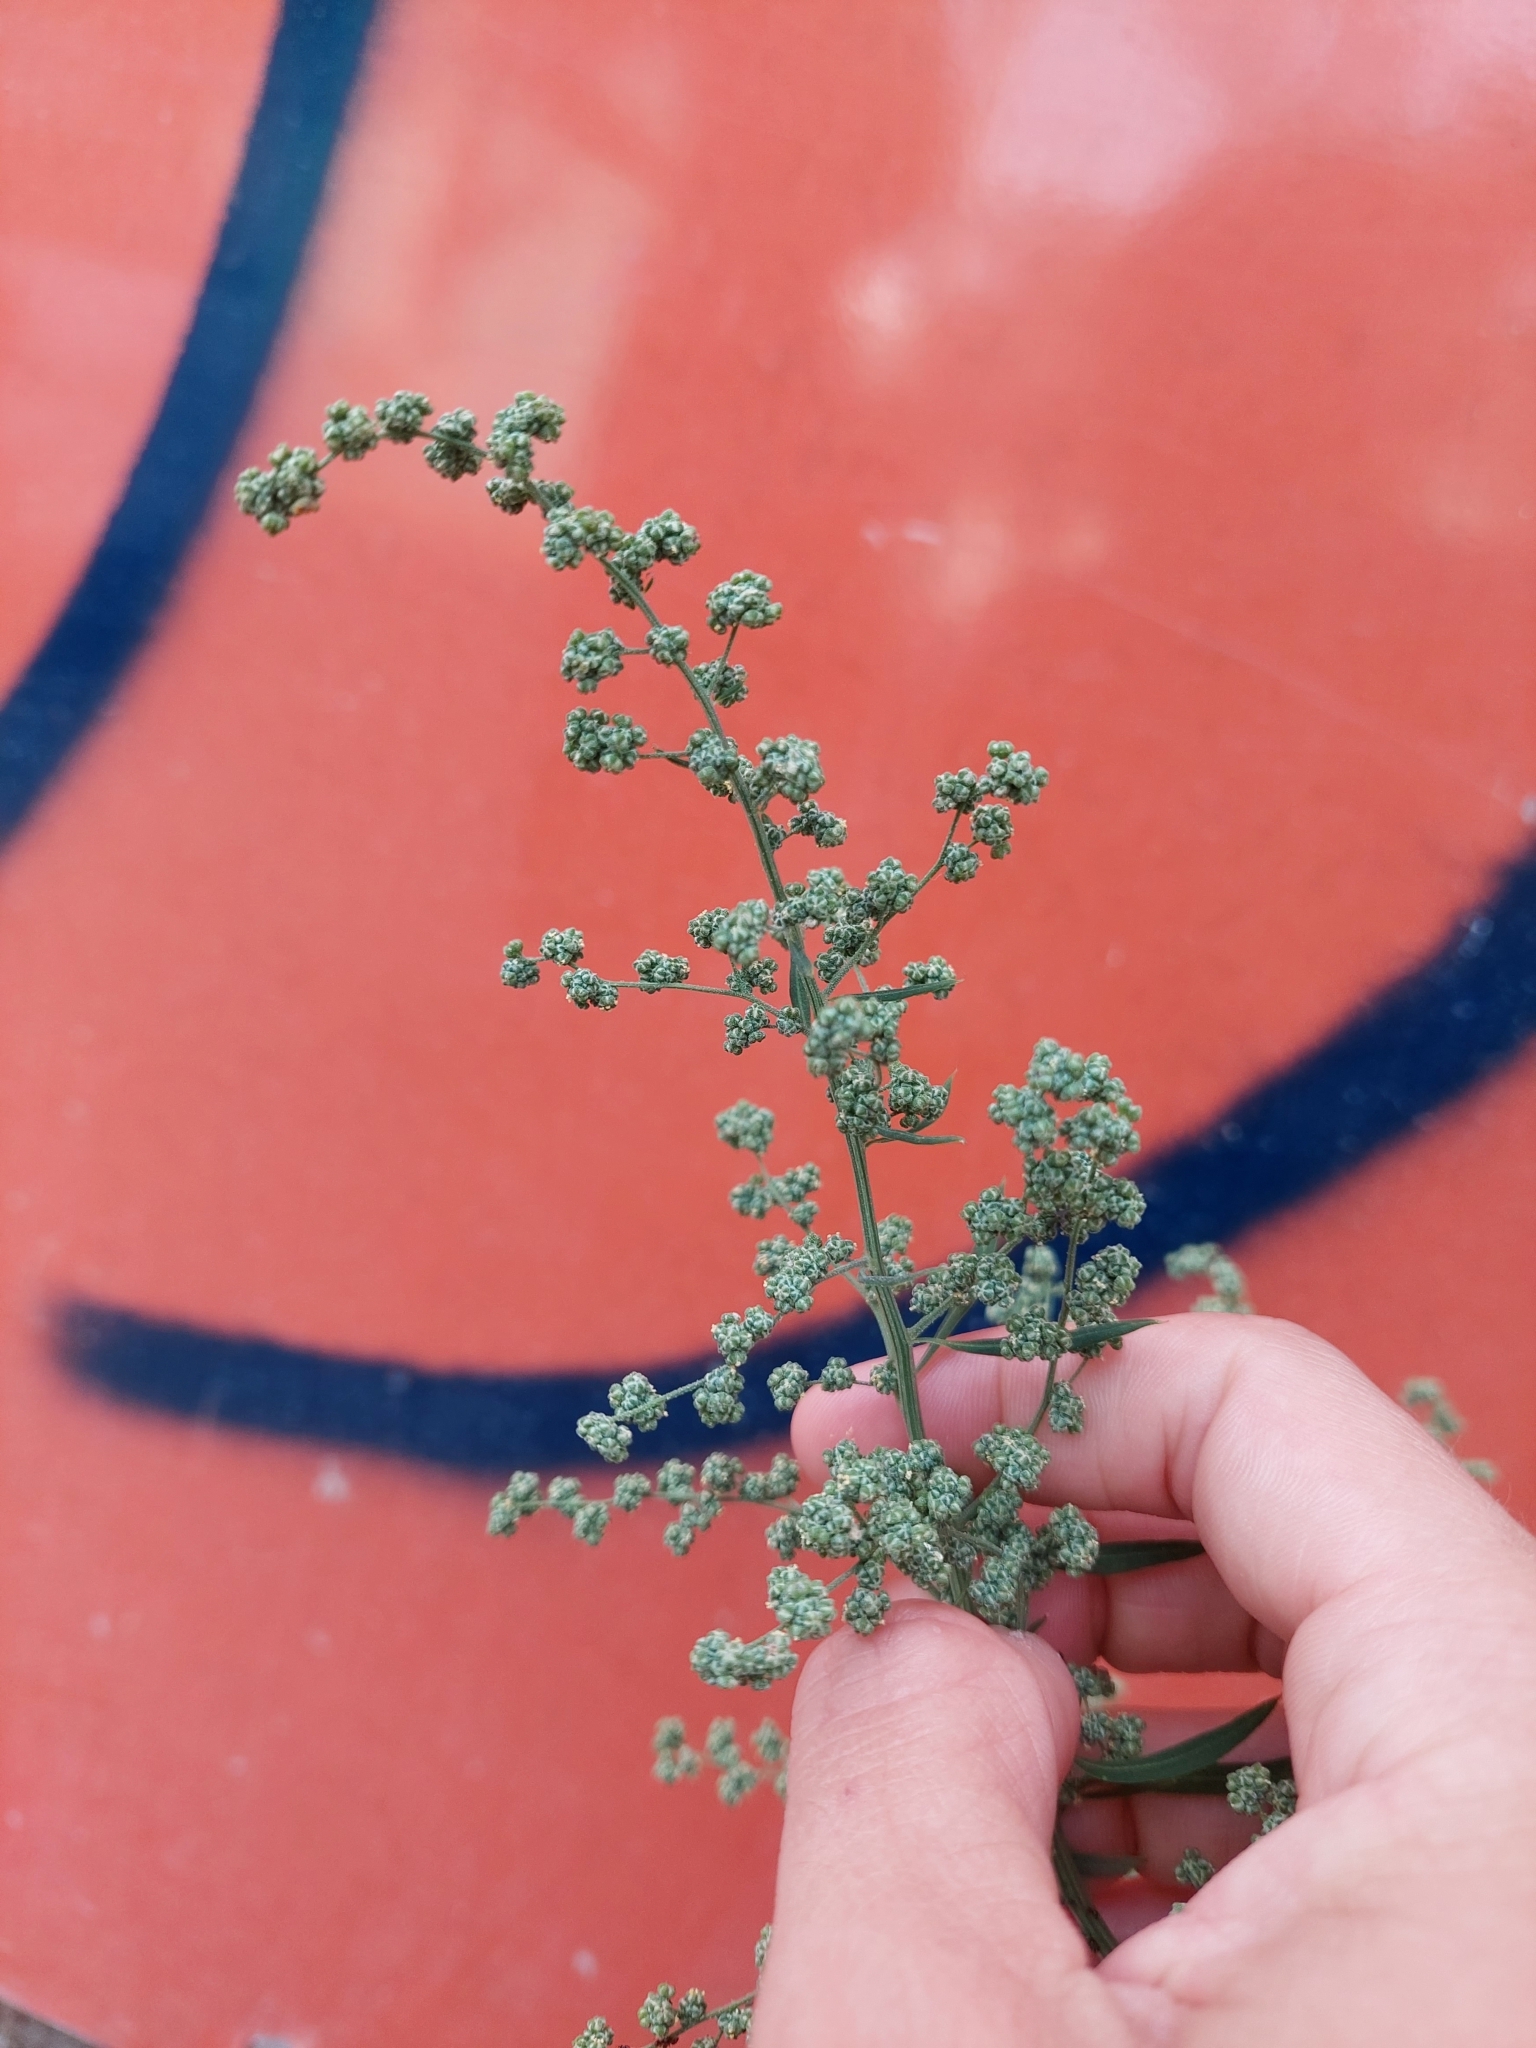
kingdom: Plantae
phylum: Tracheophyta
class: Magnoliopsida
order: Caryophyllales
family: Amaranthaceae
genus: Chenopodium
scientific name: Chenopodium album
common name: Fat-hen
